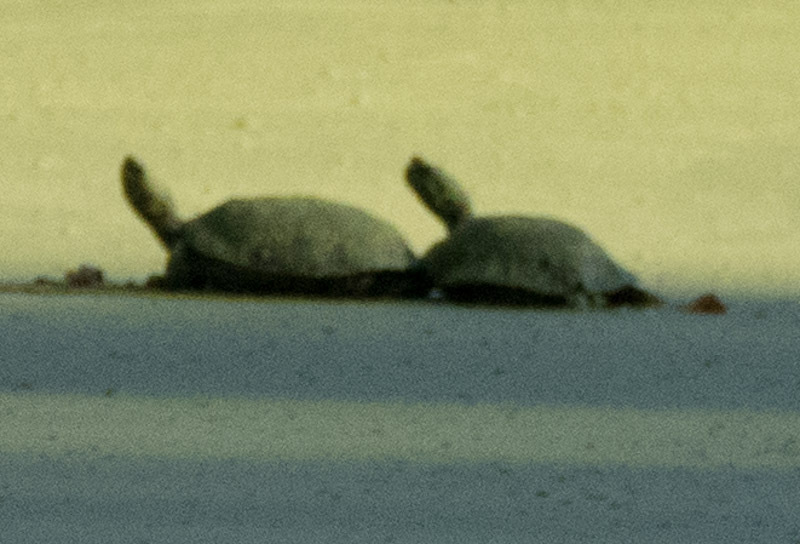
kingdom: Animalia
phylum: Chordata
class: Testudines
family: Emydidae
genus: Trachemys
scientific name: Trachemys scripta
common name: Slider
